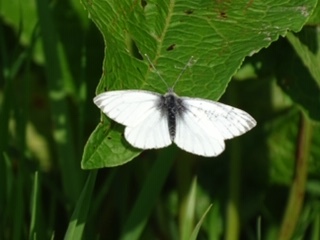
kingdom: Animalia
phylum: Arthropoda
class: Insecta
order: Lepidoptera
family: Pieridae
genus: Pieris
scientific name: Pieris napi
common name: Green-veined white
